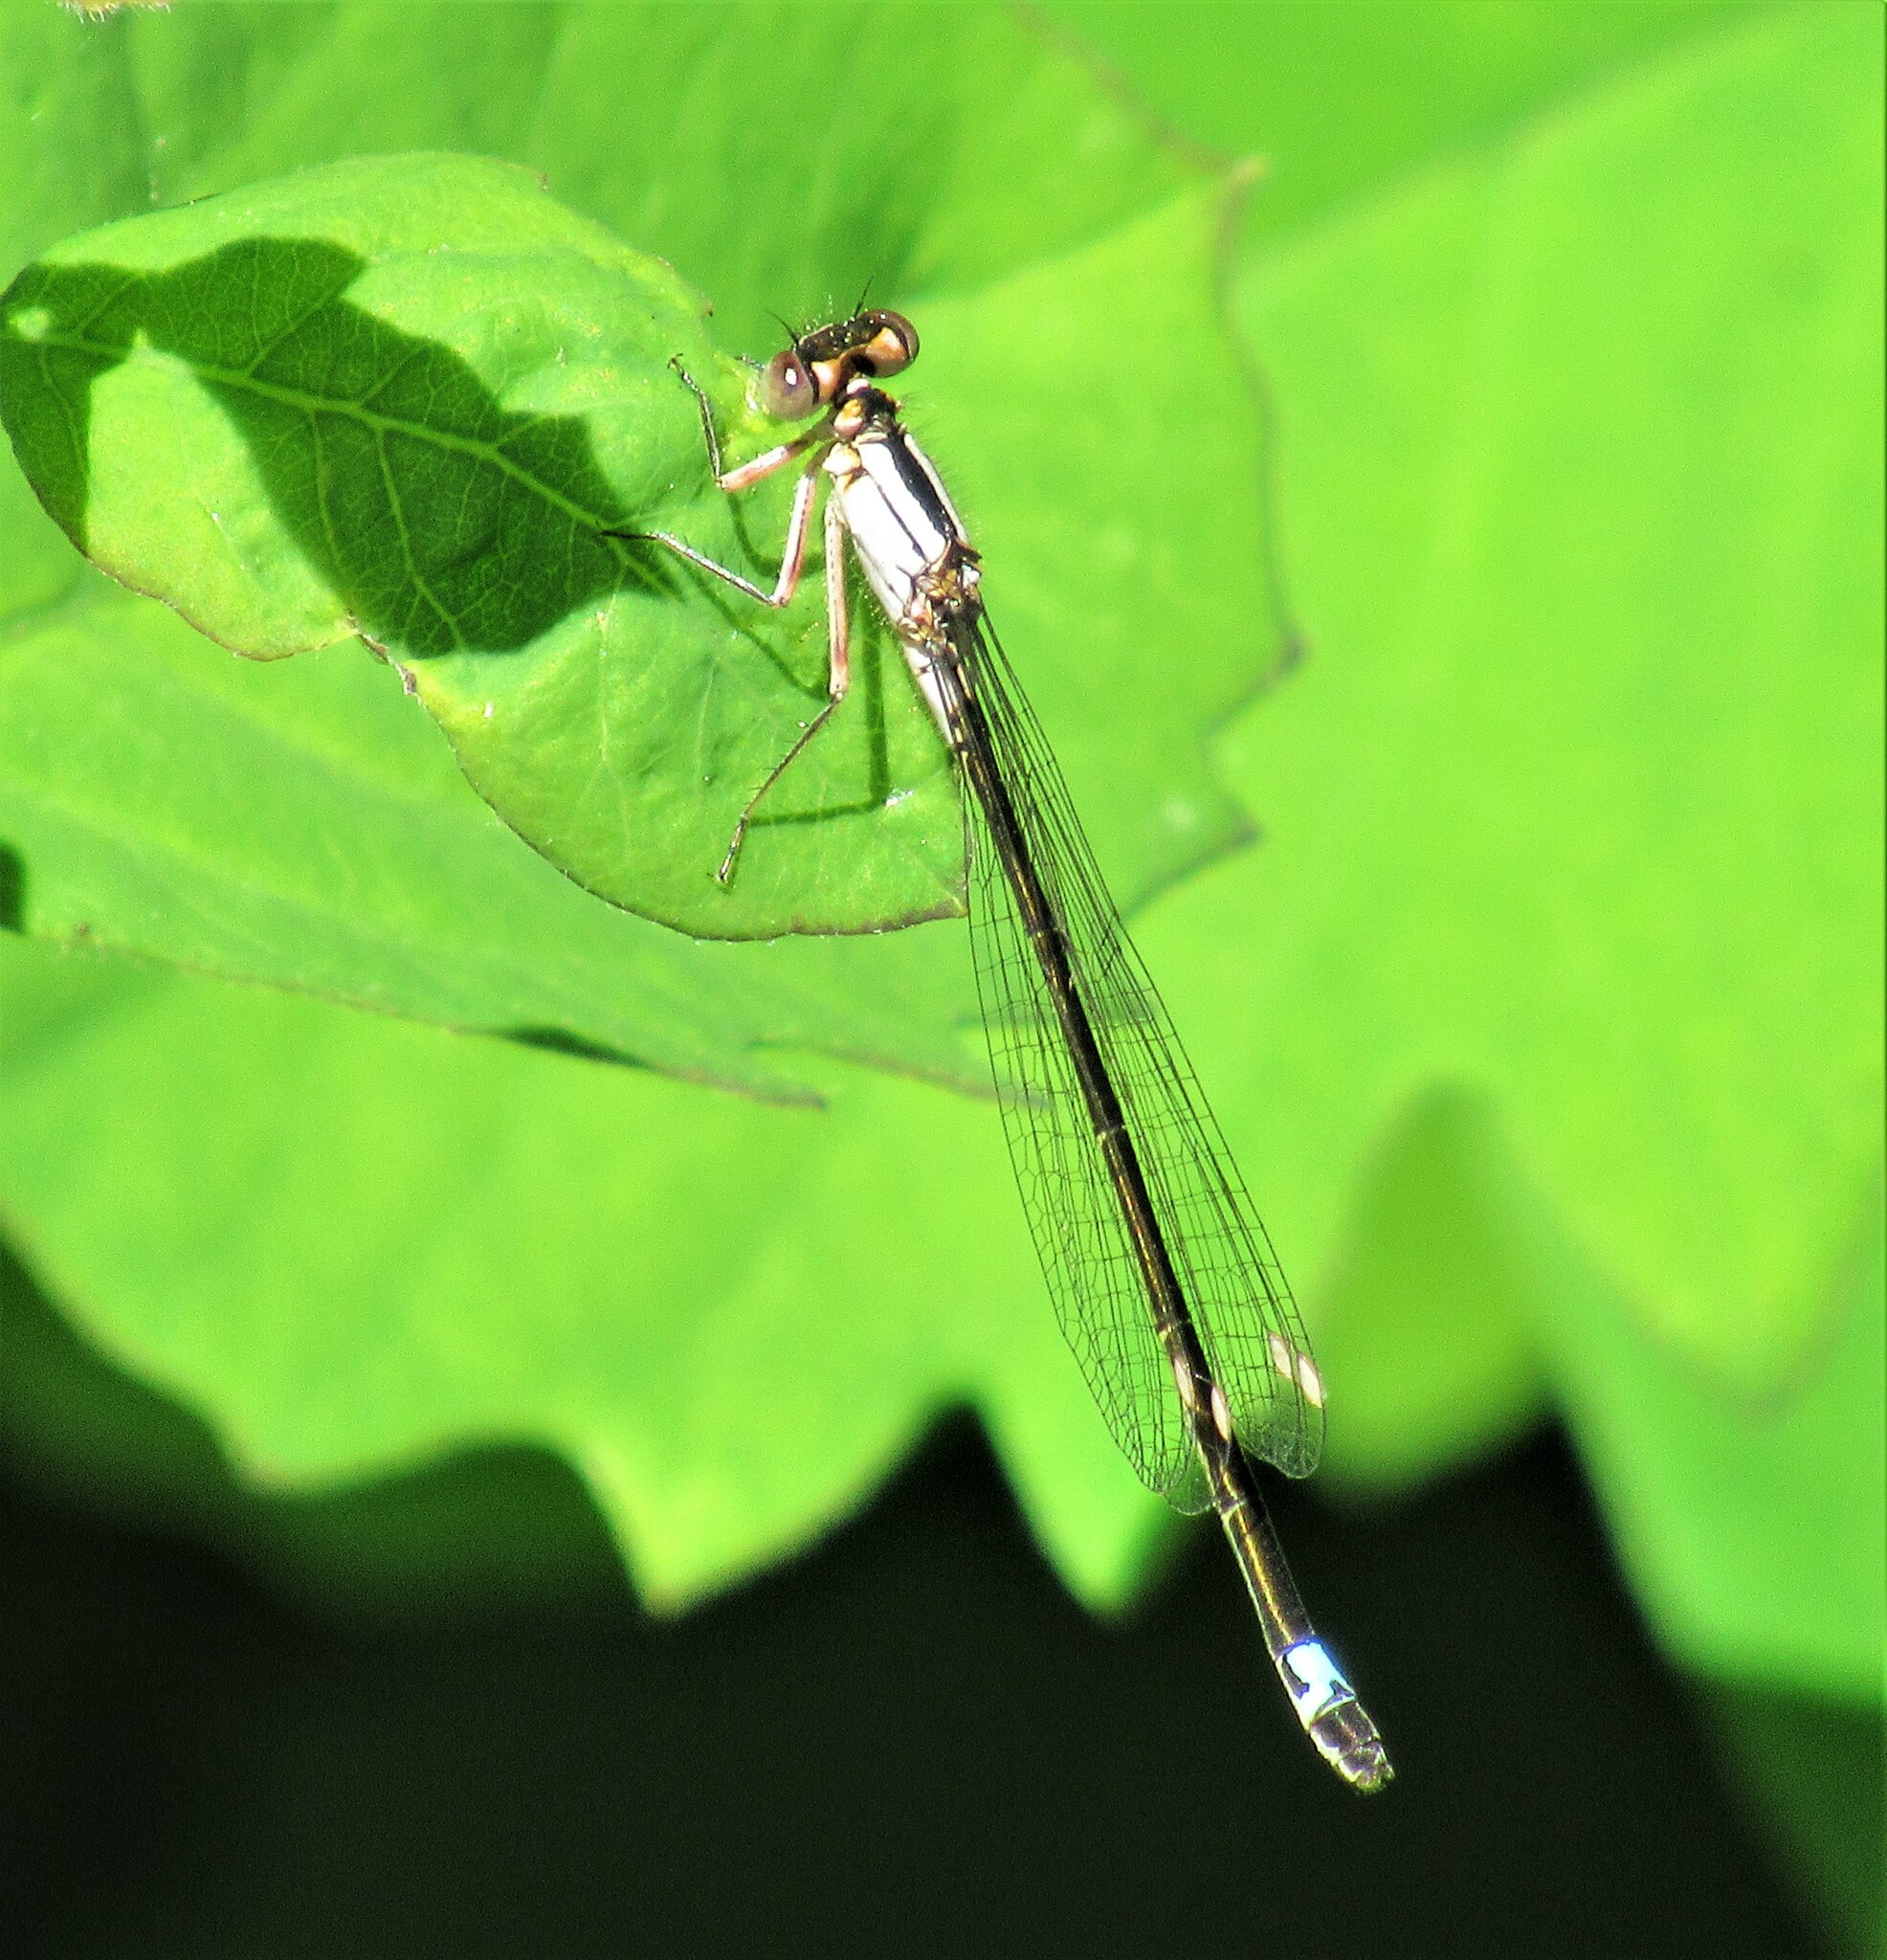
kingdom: Animalia
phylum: Arthropoda
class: Insecta
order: Odonata
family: Coenagrionidae
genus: Ischnura
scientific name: Ischnura cervula
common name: Pacific forktail
